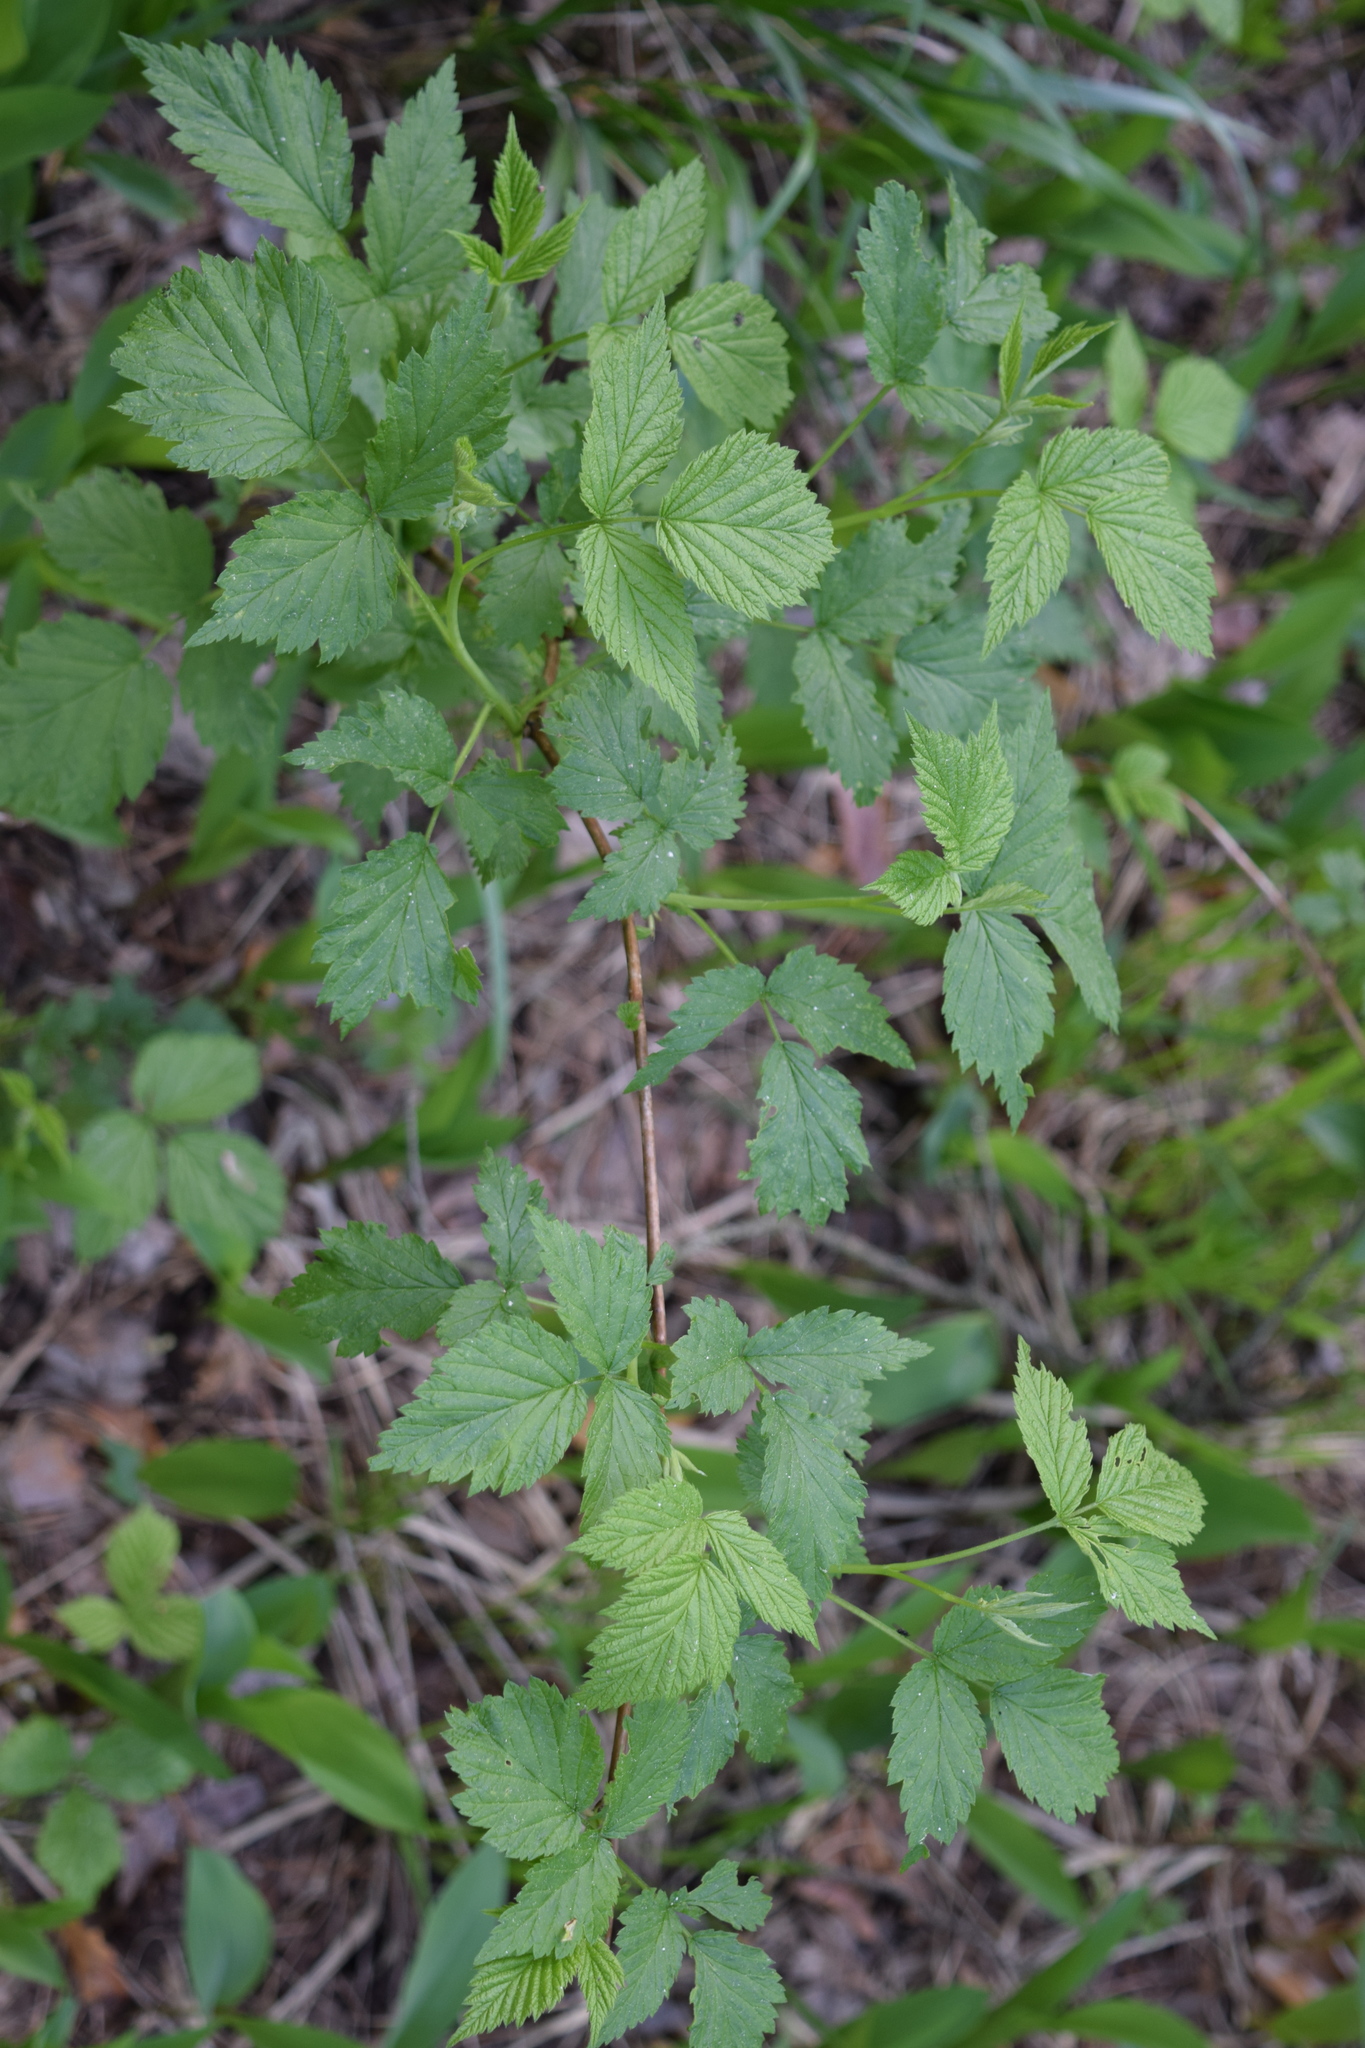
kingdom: Plantae
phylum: Tracheophyta
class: Magnoliopsida
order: Rosales
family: Rosaceae
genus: Rubus
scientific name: Rubus idaeus
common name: Raspberry
